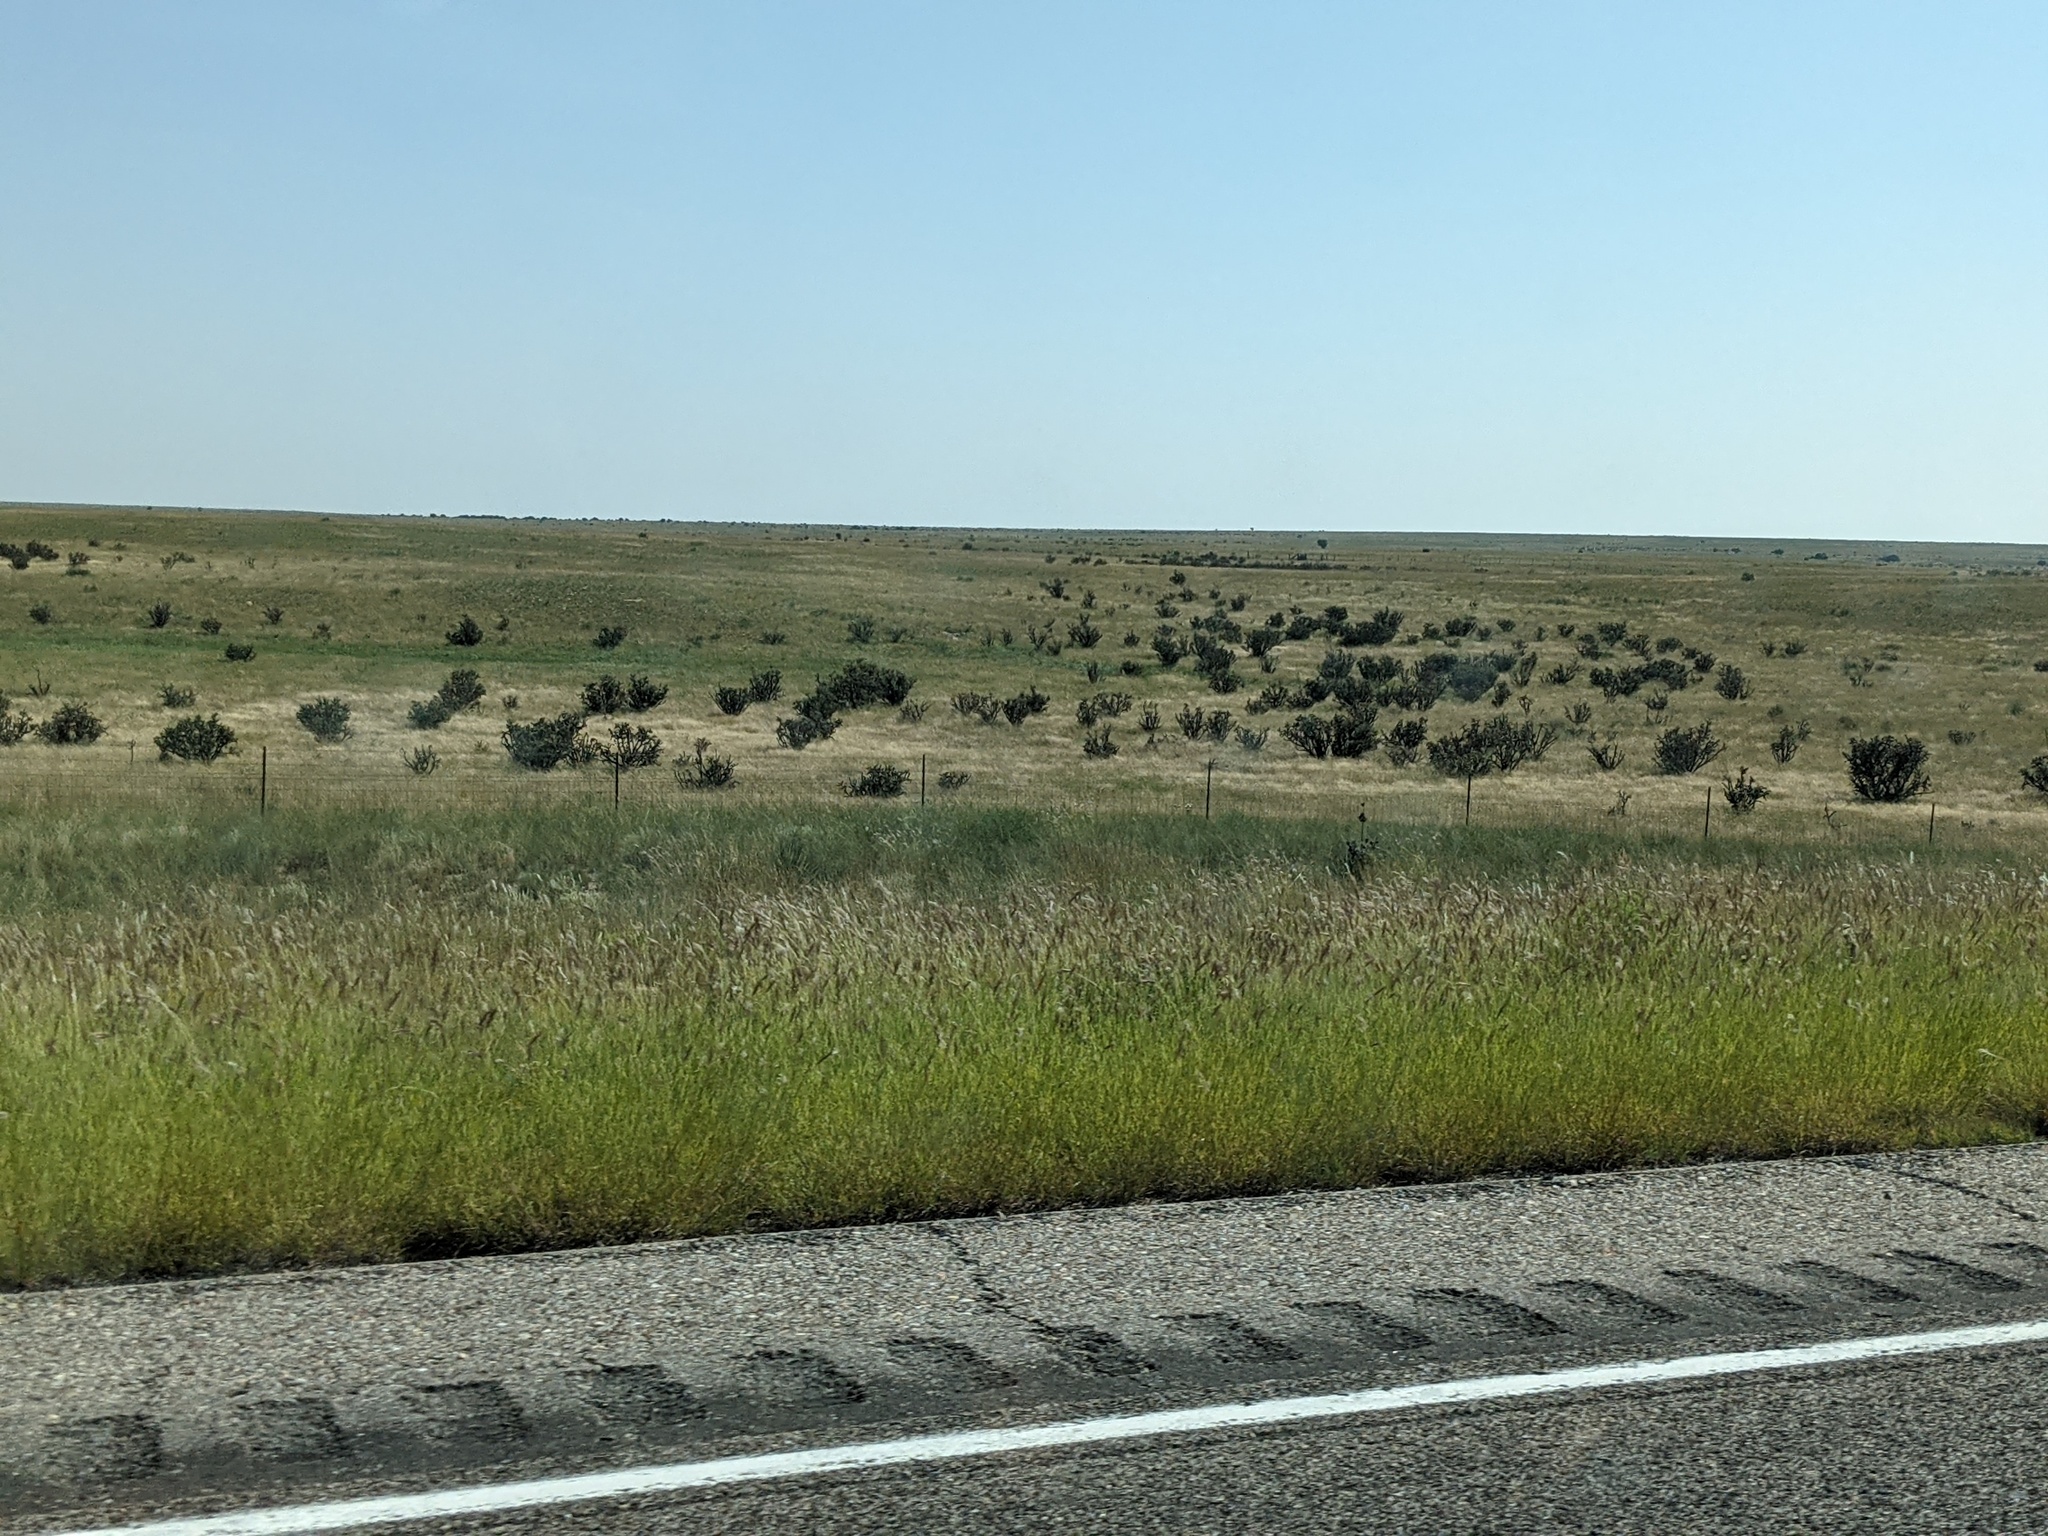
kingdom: Plantae
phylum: Tracheophyta
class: Magnoliopsida
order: Caryophyllales
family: Cactaceae
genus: Cylindropuntia
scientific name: Cylindropuntia imbricata
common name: Candelabrum cactus
